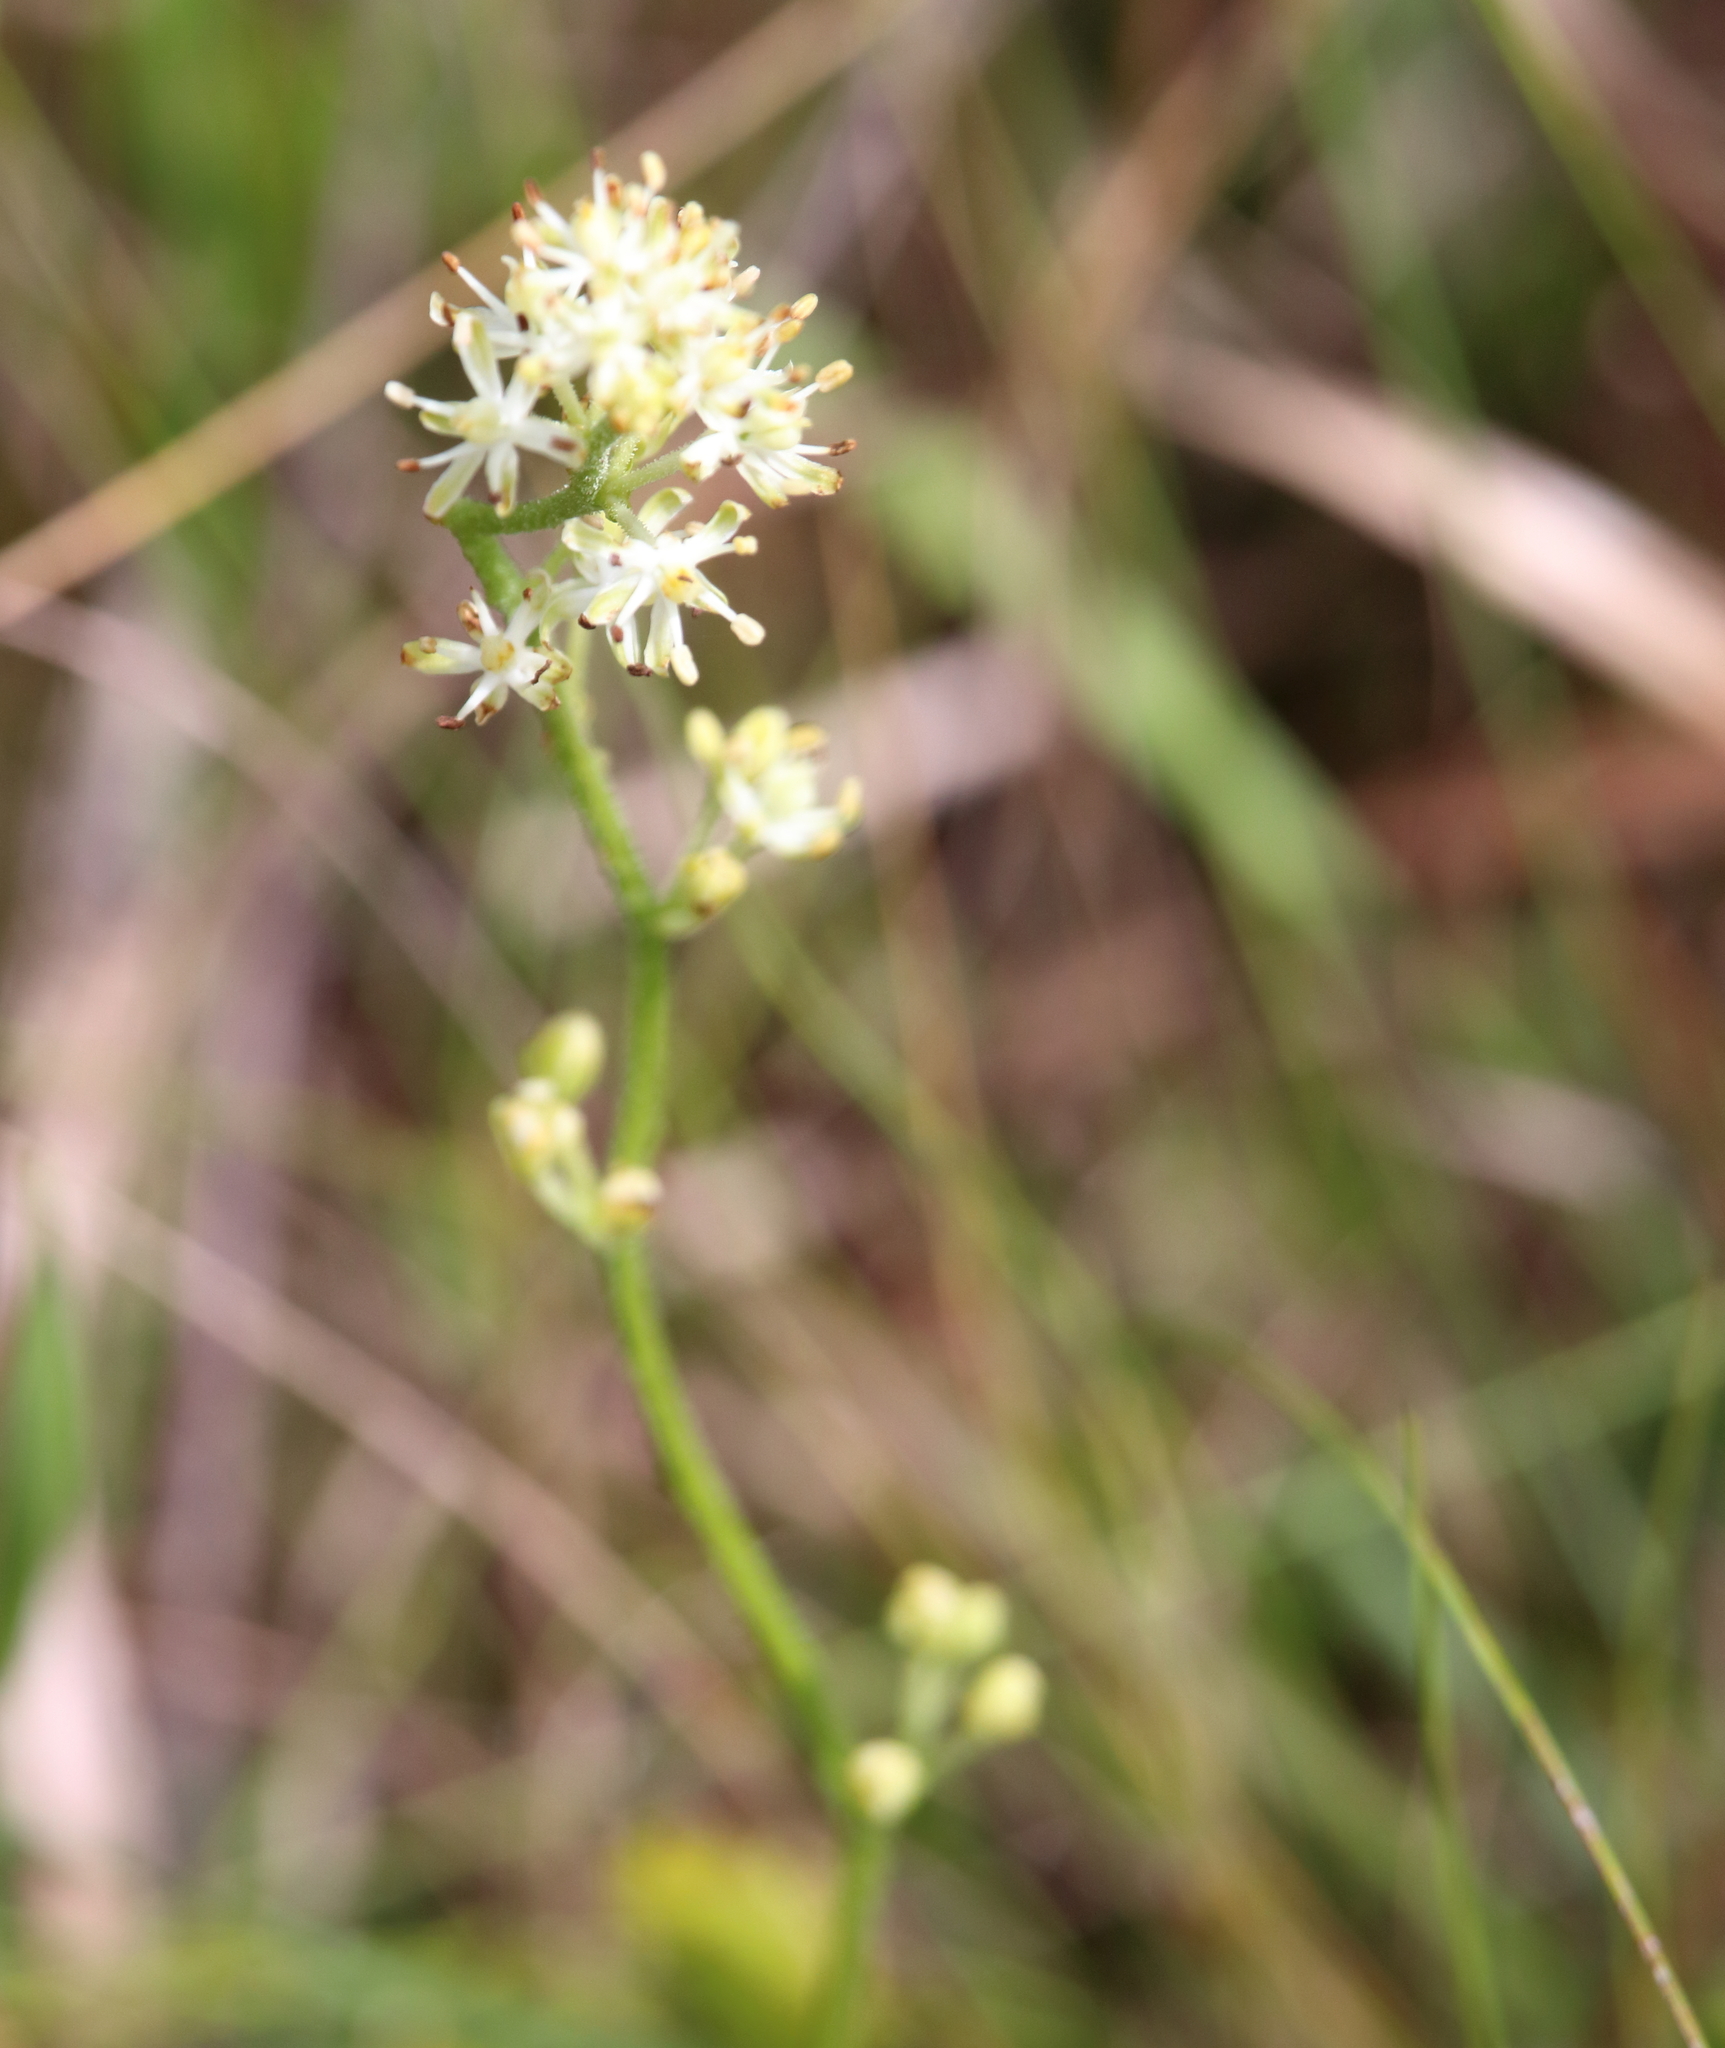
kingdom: Plantae
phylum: Tracheophyta
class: Liliopsida
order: Alismatales
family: Tofieldiaceae
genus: Triantha
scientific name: Triantha racemosa
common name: Coastal false asphodel
